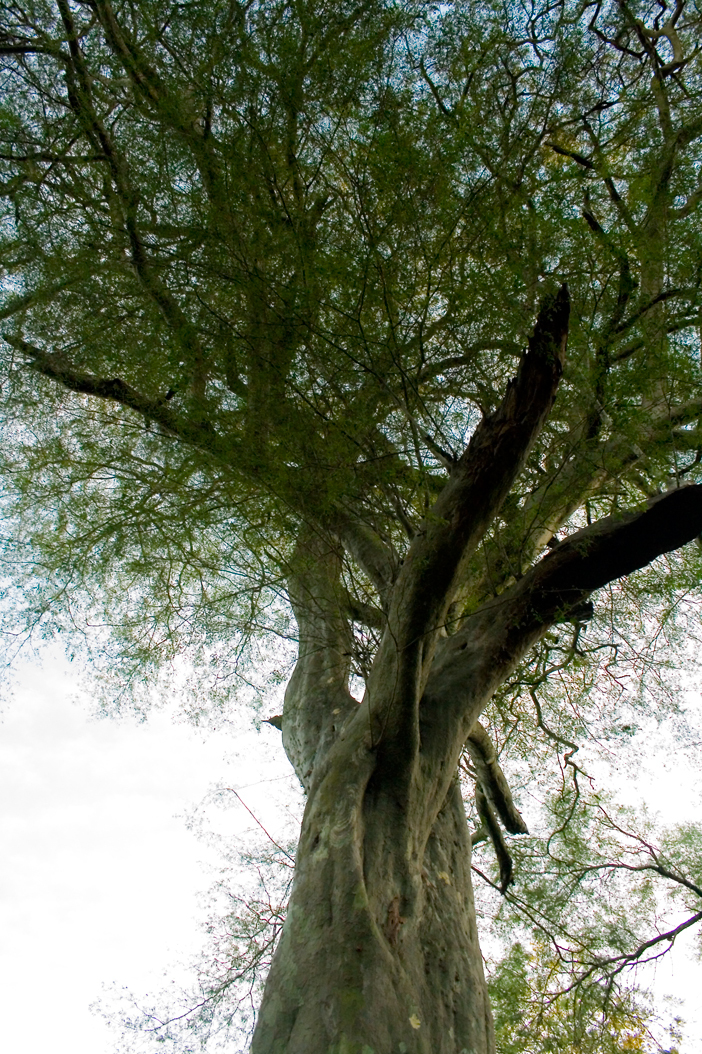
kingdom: Plantae
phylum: Tracheophyta
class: Magnoliopsida
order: Fabales
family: Fabaceae
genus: Libidibia
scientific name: Libidibia paraguariensis
